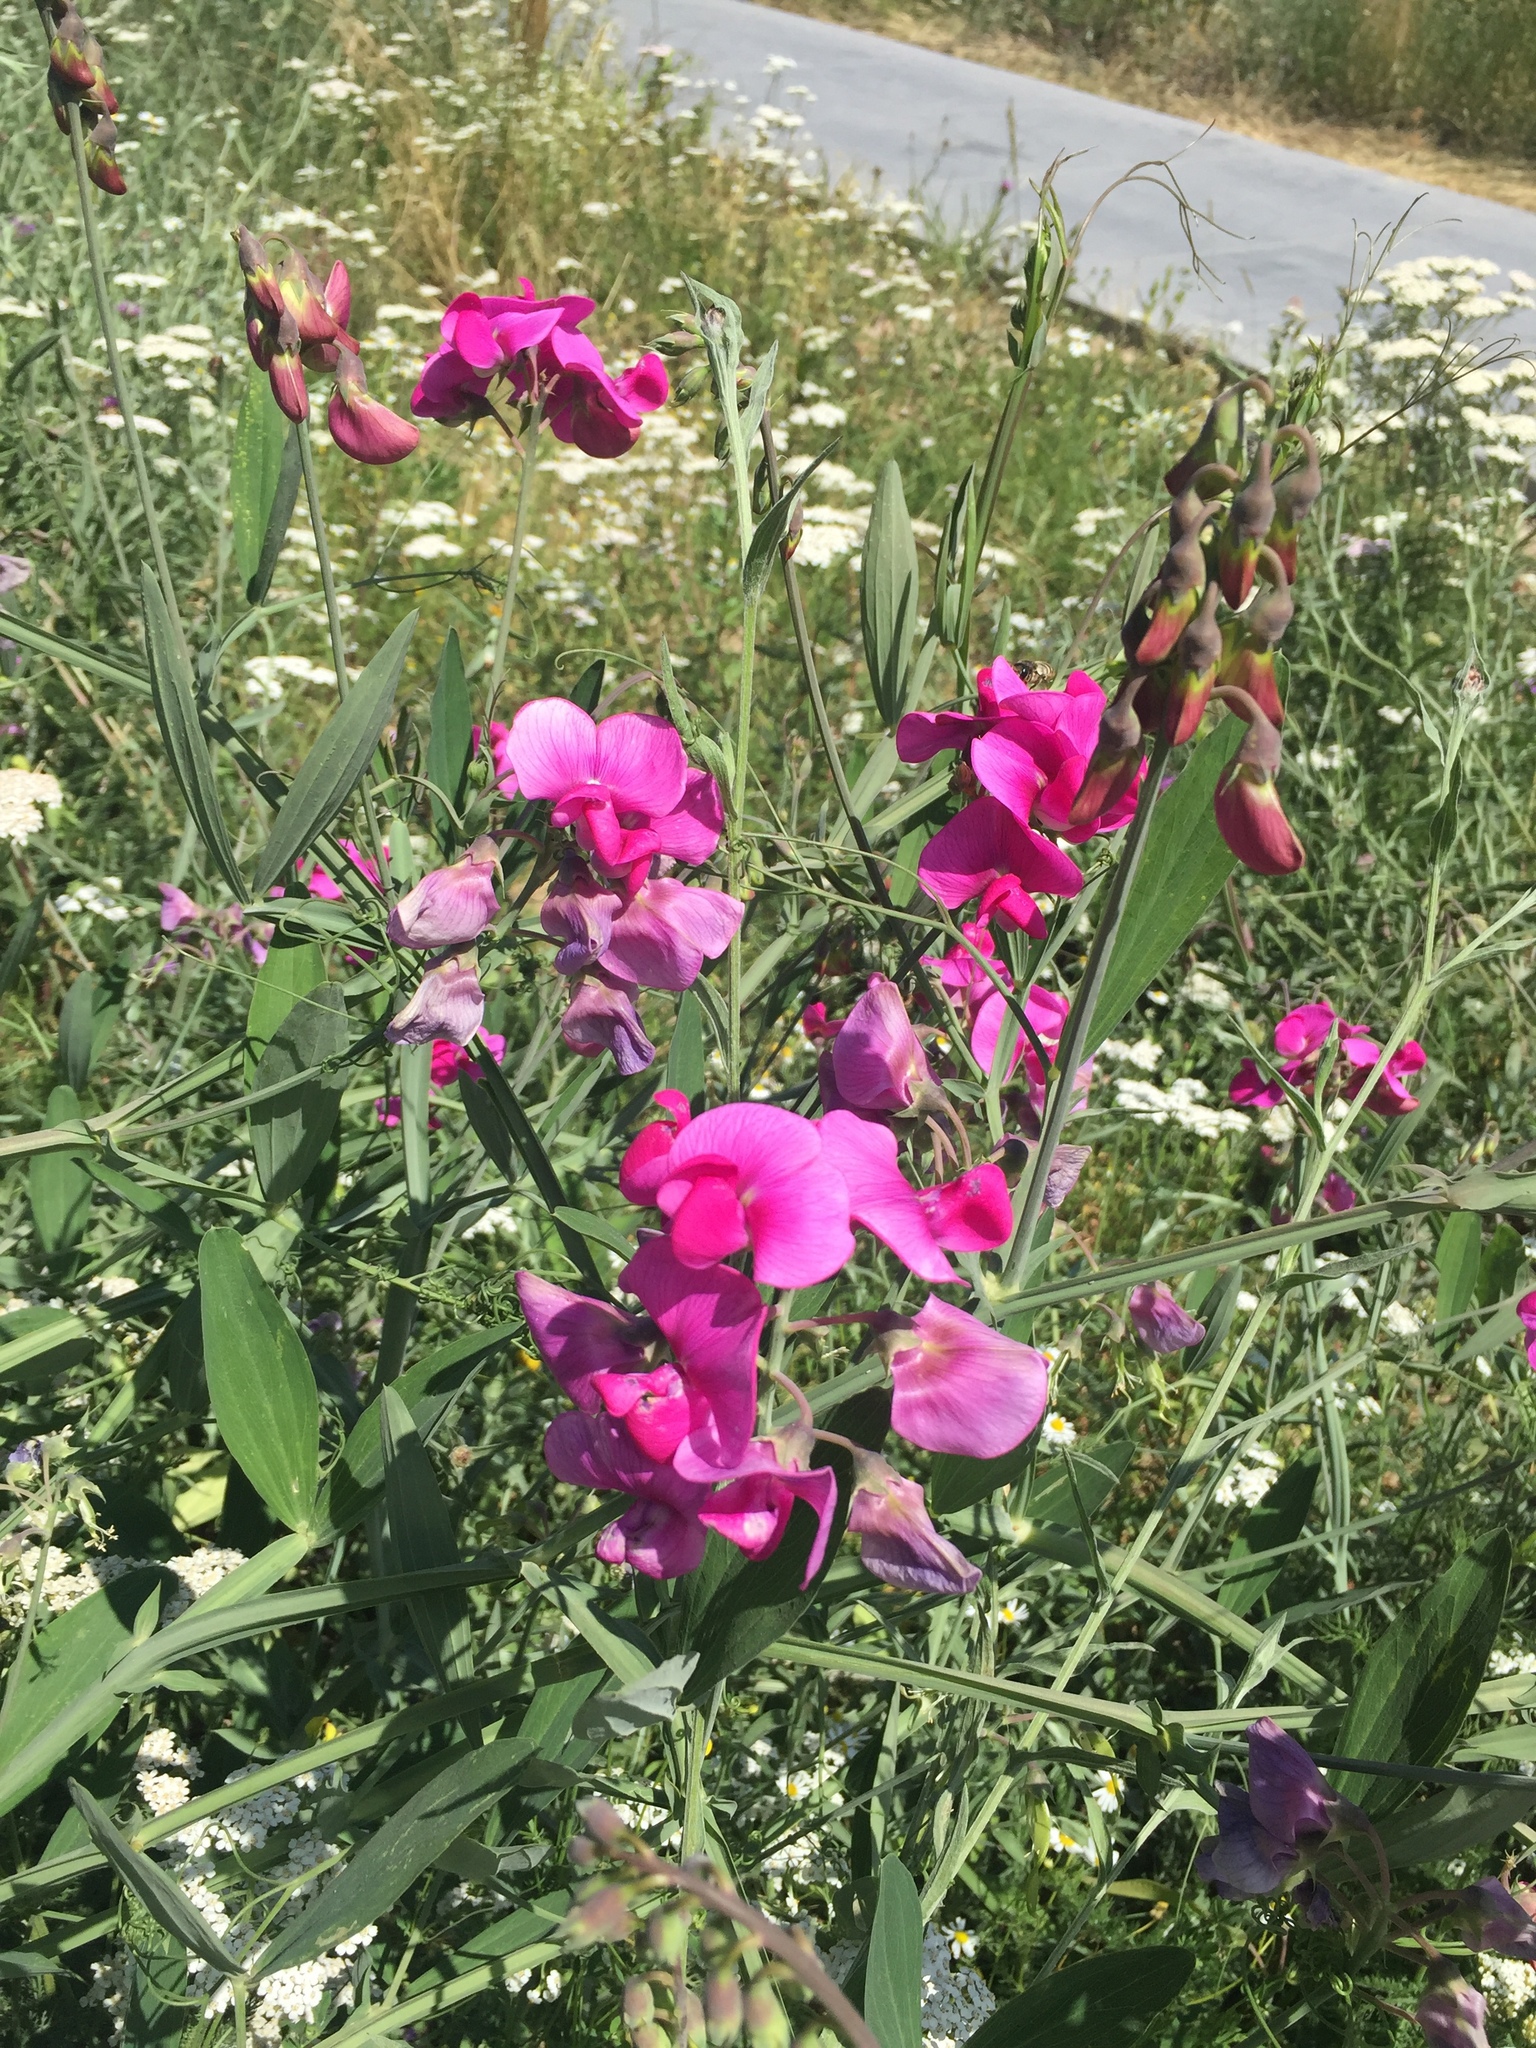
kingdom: Plantae
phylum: Tracheophyta
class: Magnoliopsida
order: Fabales
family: Fabaceae
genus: Lathyrus
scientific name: Lathyrus latifolius
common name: Perennial pea
